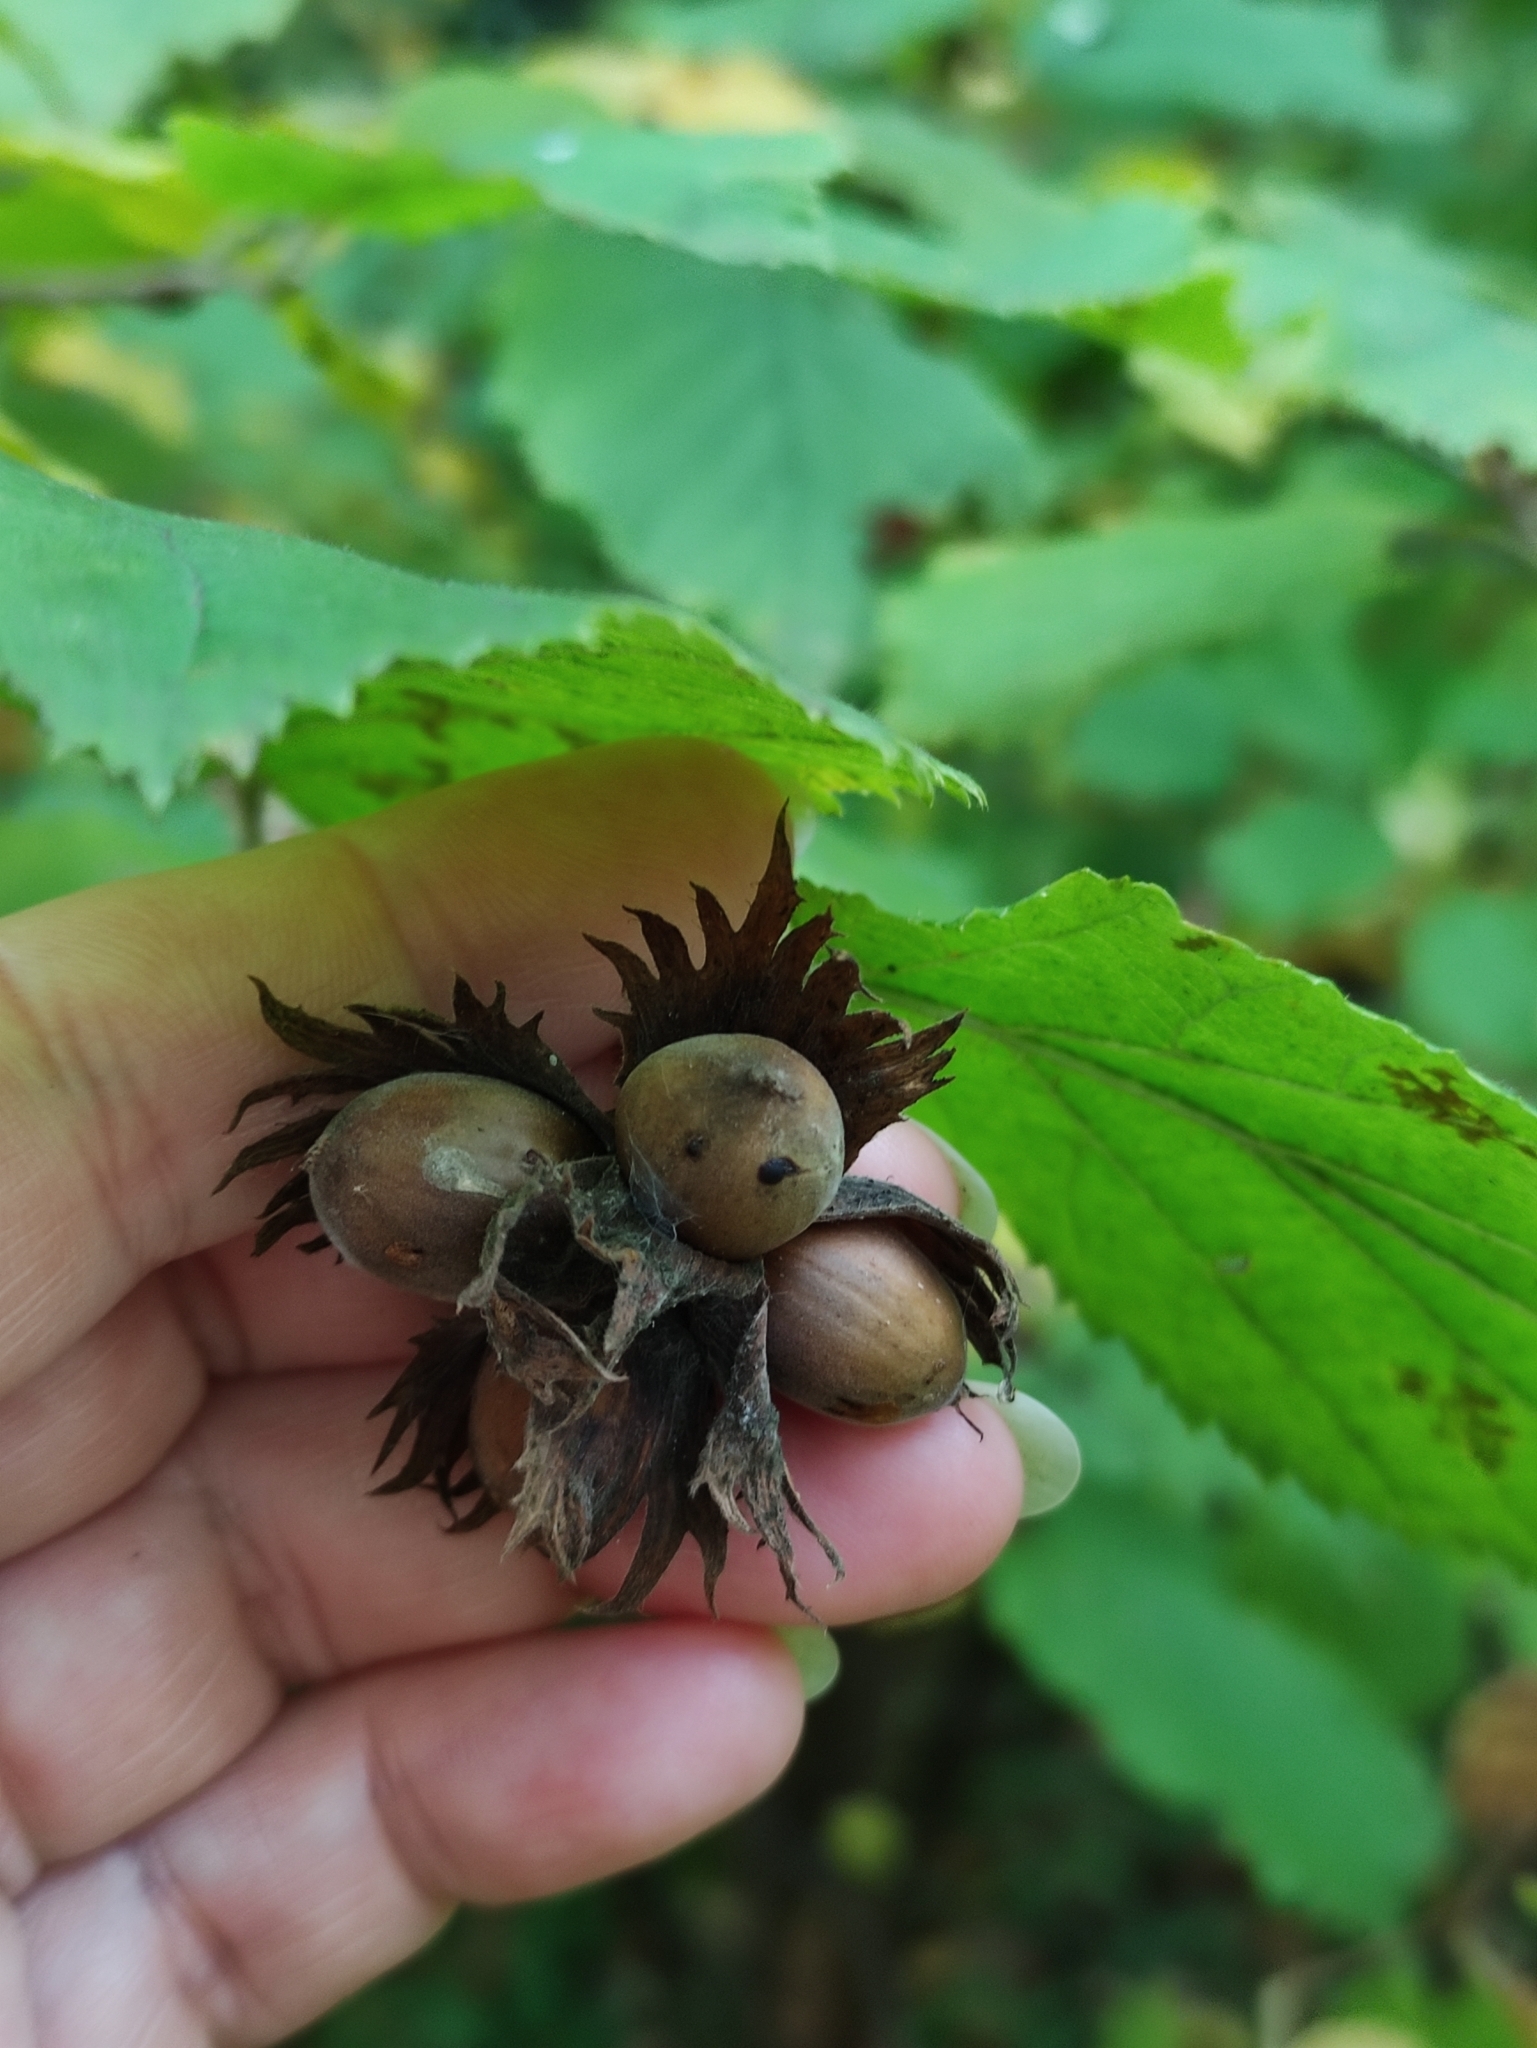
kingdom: Plantae
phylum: Tracheophyta
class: Magnoliopsida
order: Fagales
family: Betulaceae
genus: Corylus
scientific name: Corylus avellana
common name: European hazel
